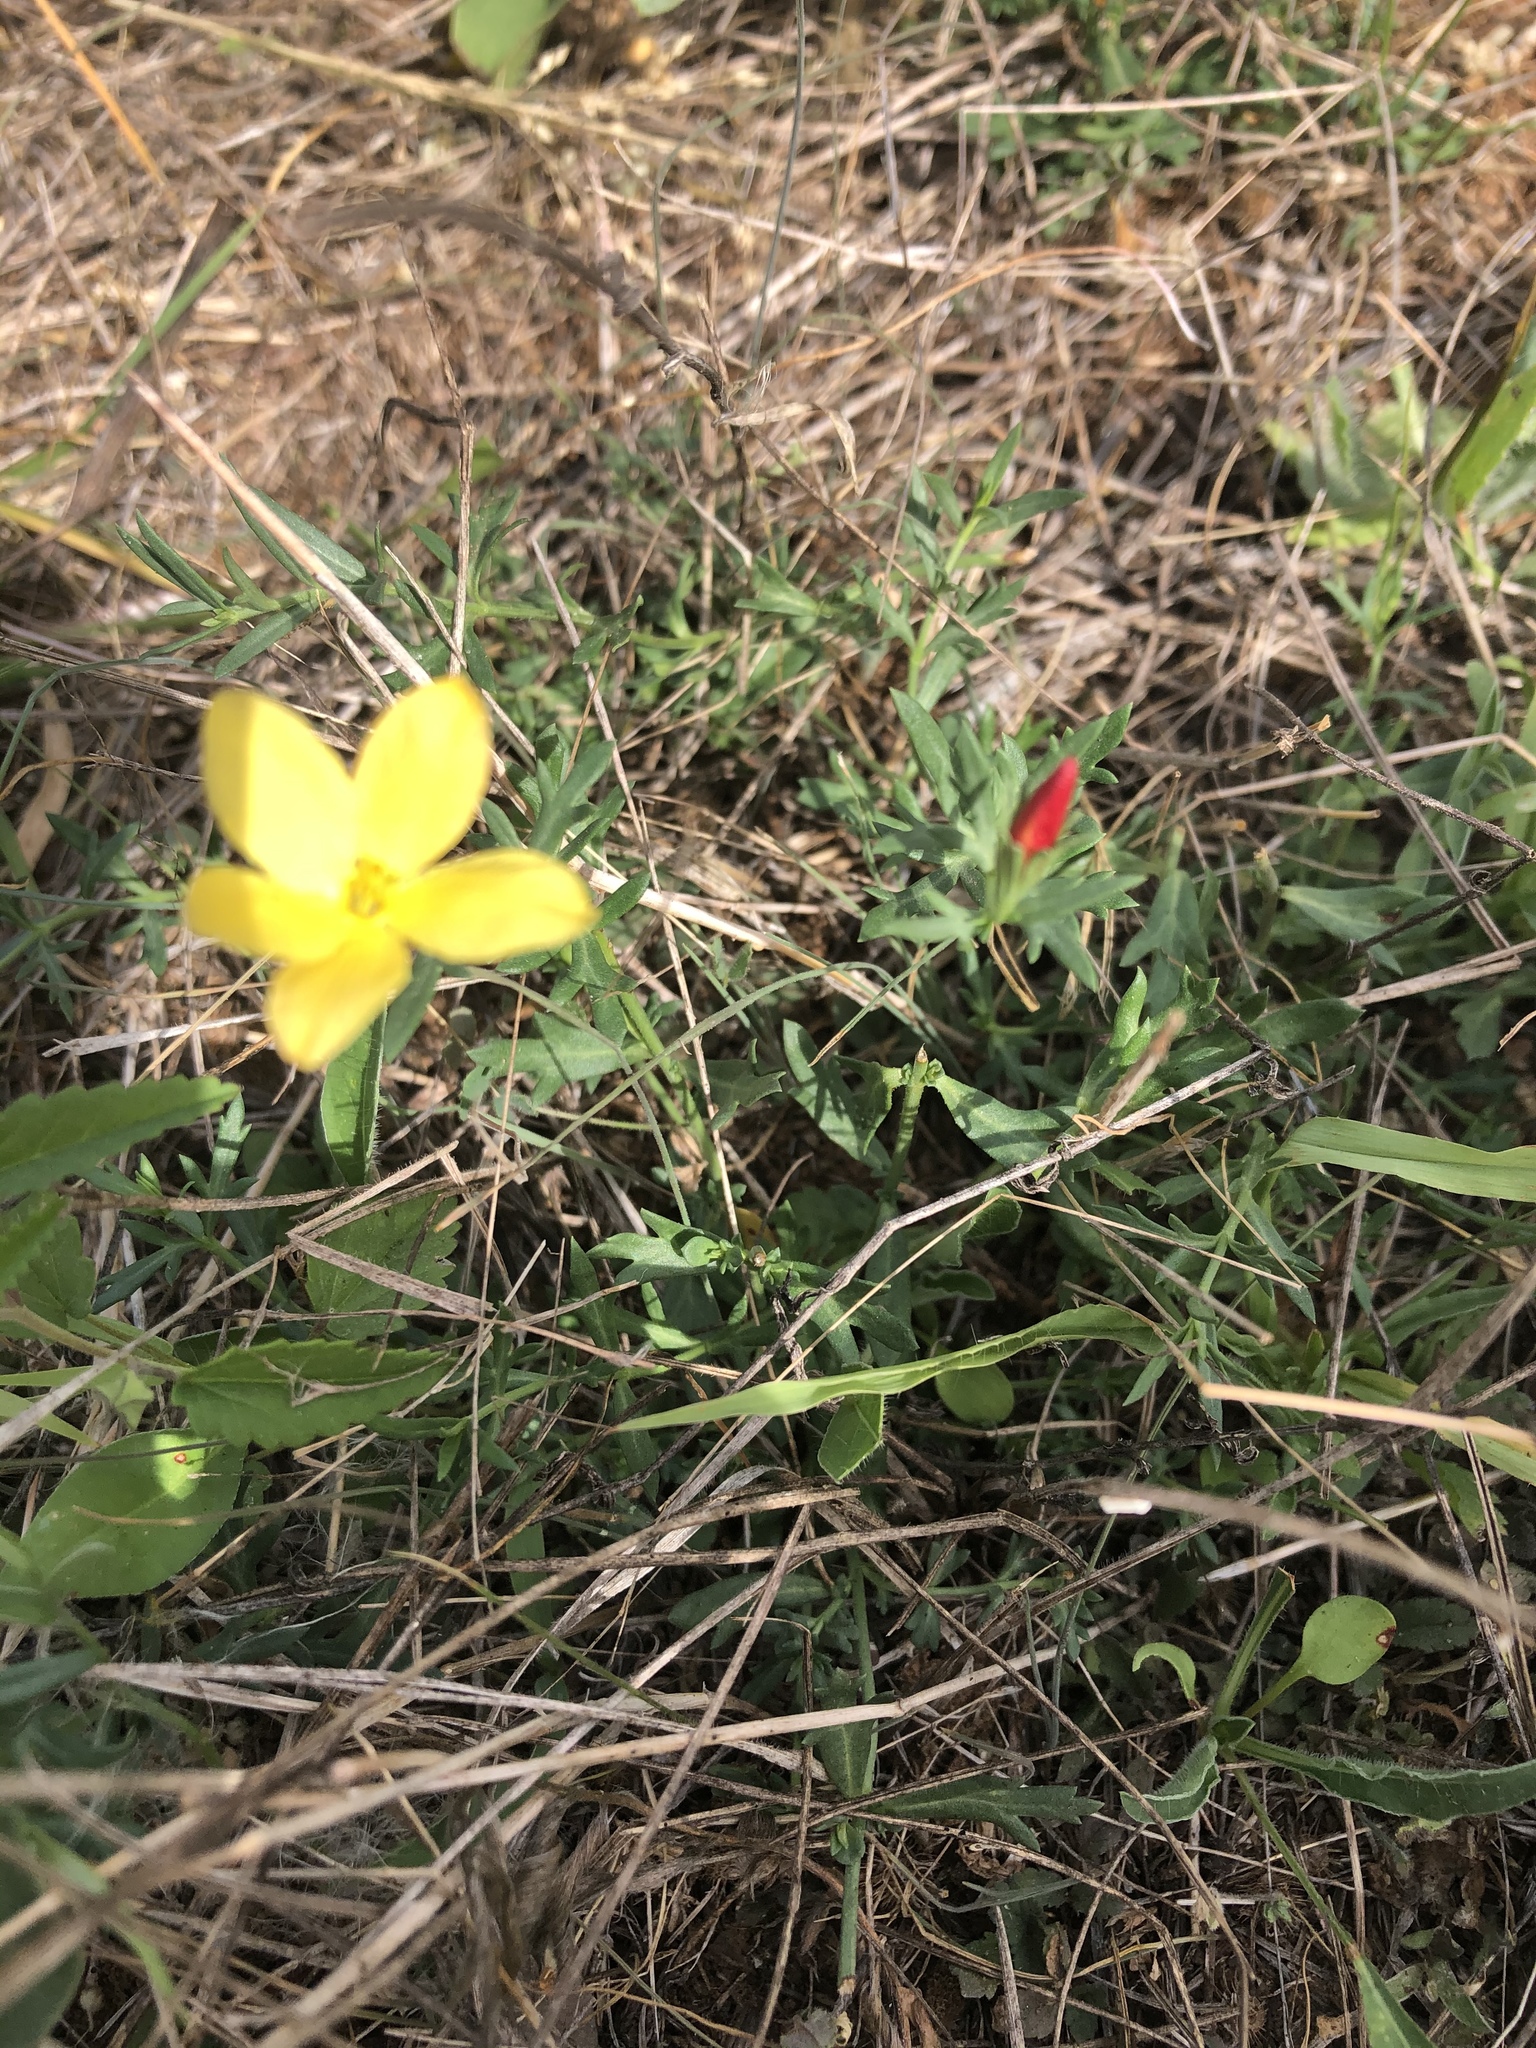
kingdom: Plantae
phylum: Tracheophyta
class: Magnoliopsida
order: Lamiales
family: Oleaceae
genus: Menodora
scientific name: Menodora heterophylla
